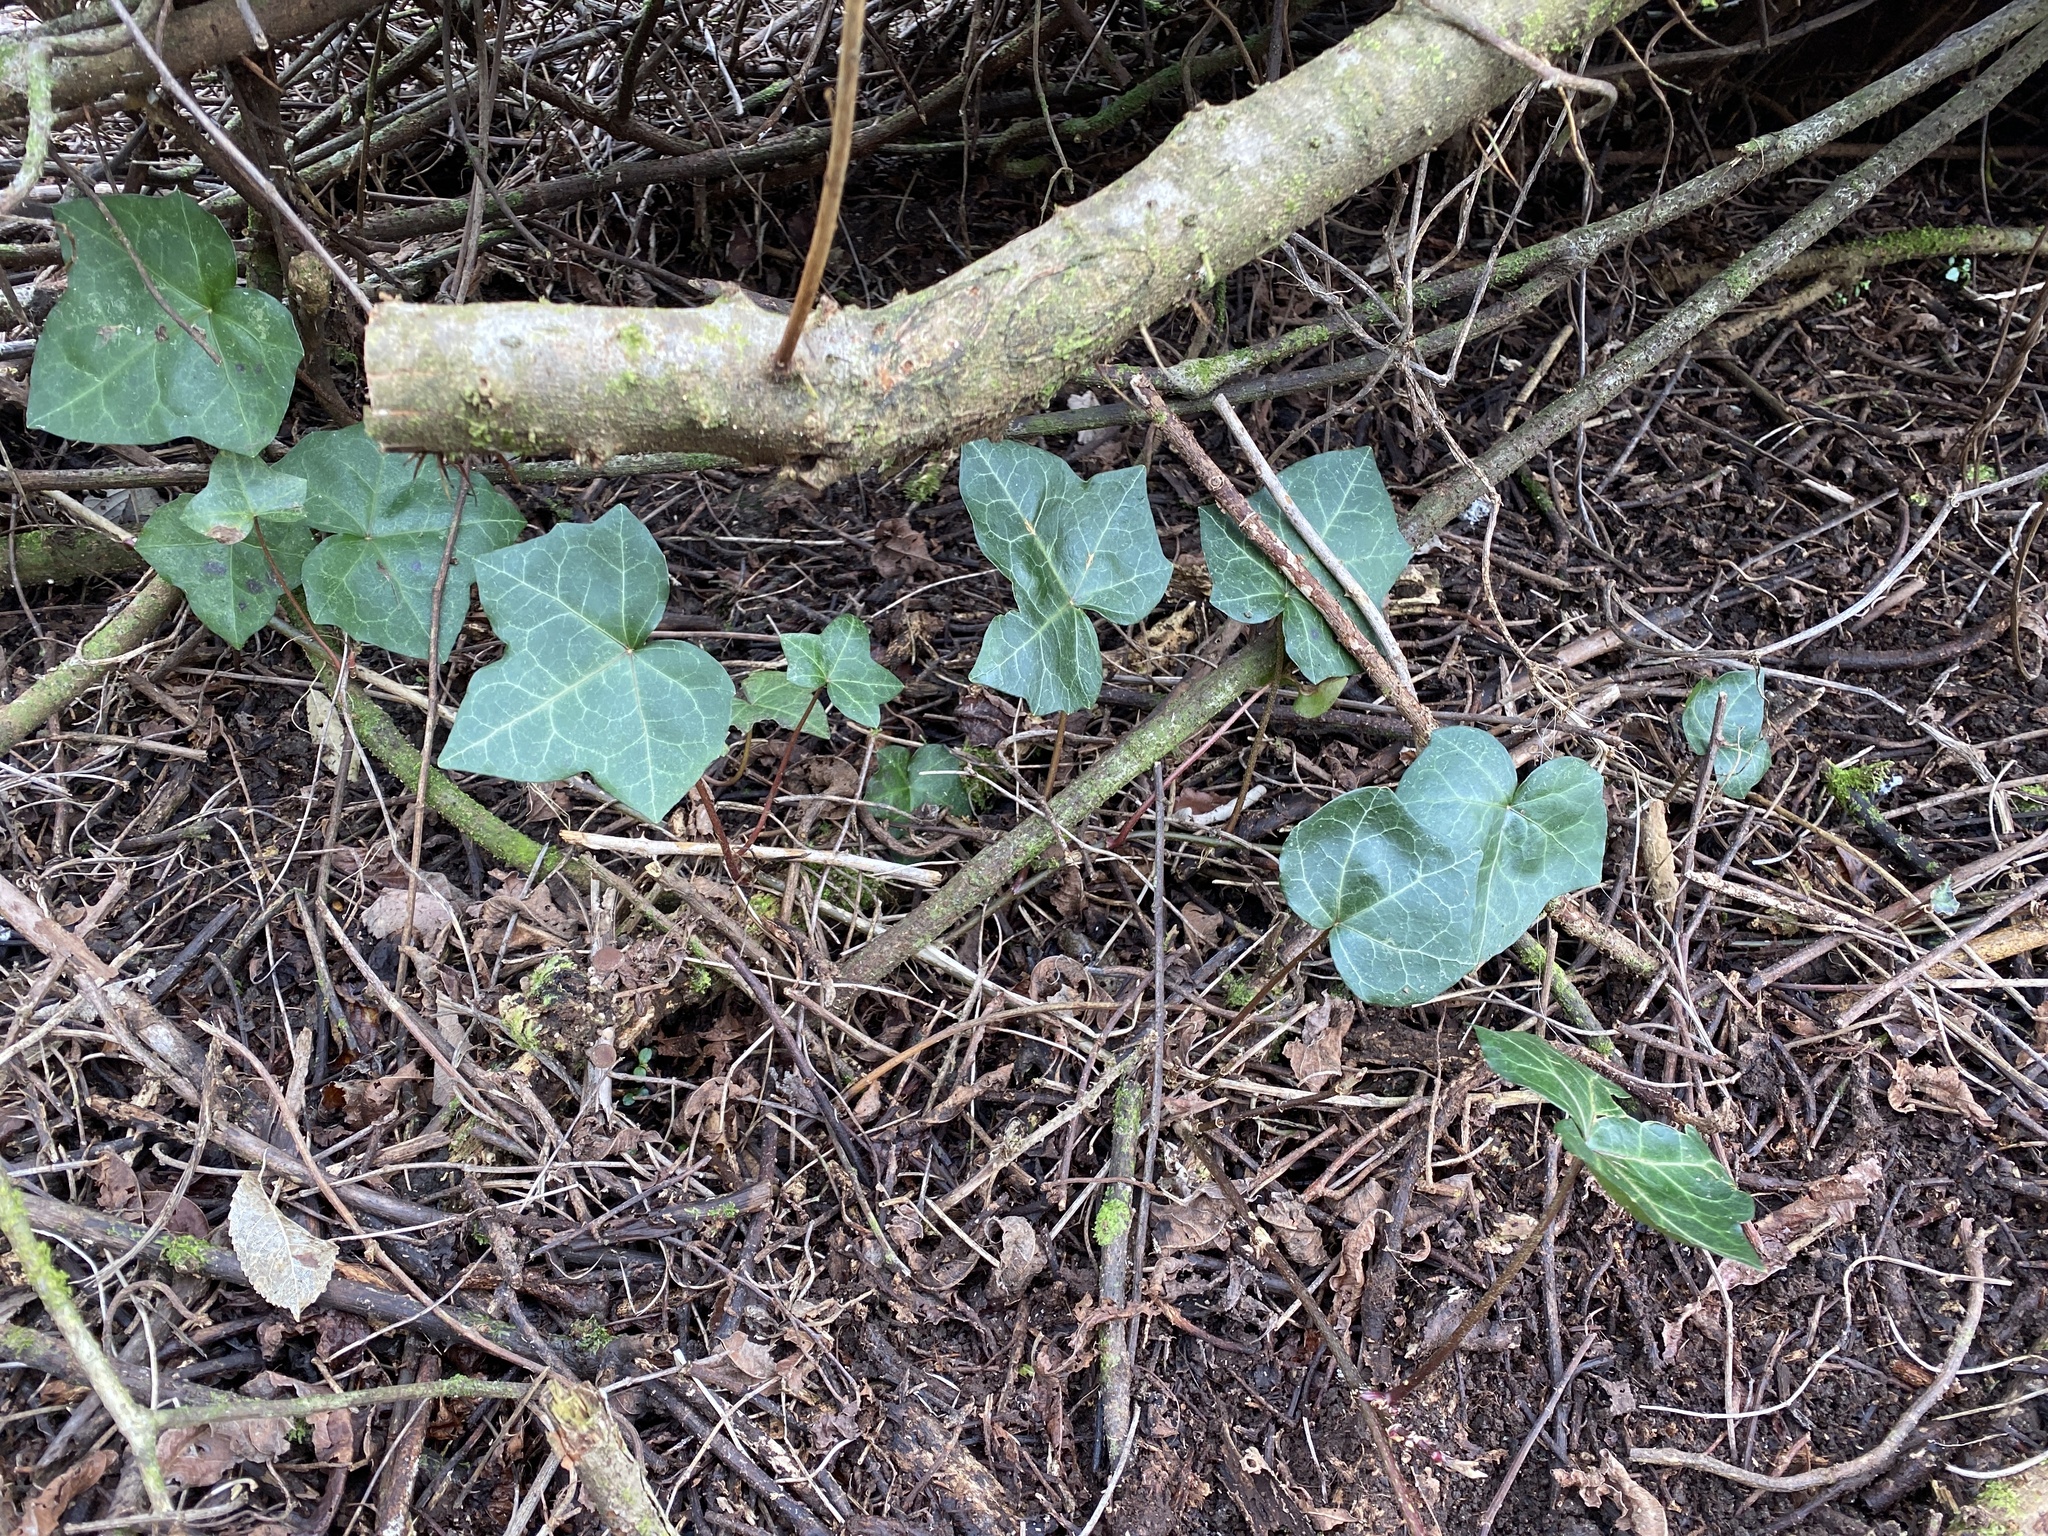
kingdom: Plantae
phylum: Tracheophyta
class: Magnoliopsida
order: Apiales
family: Araliaceae
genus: Hedera
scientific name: Hedera helix
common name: Ivy
